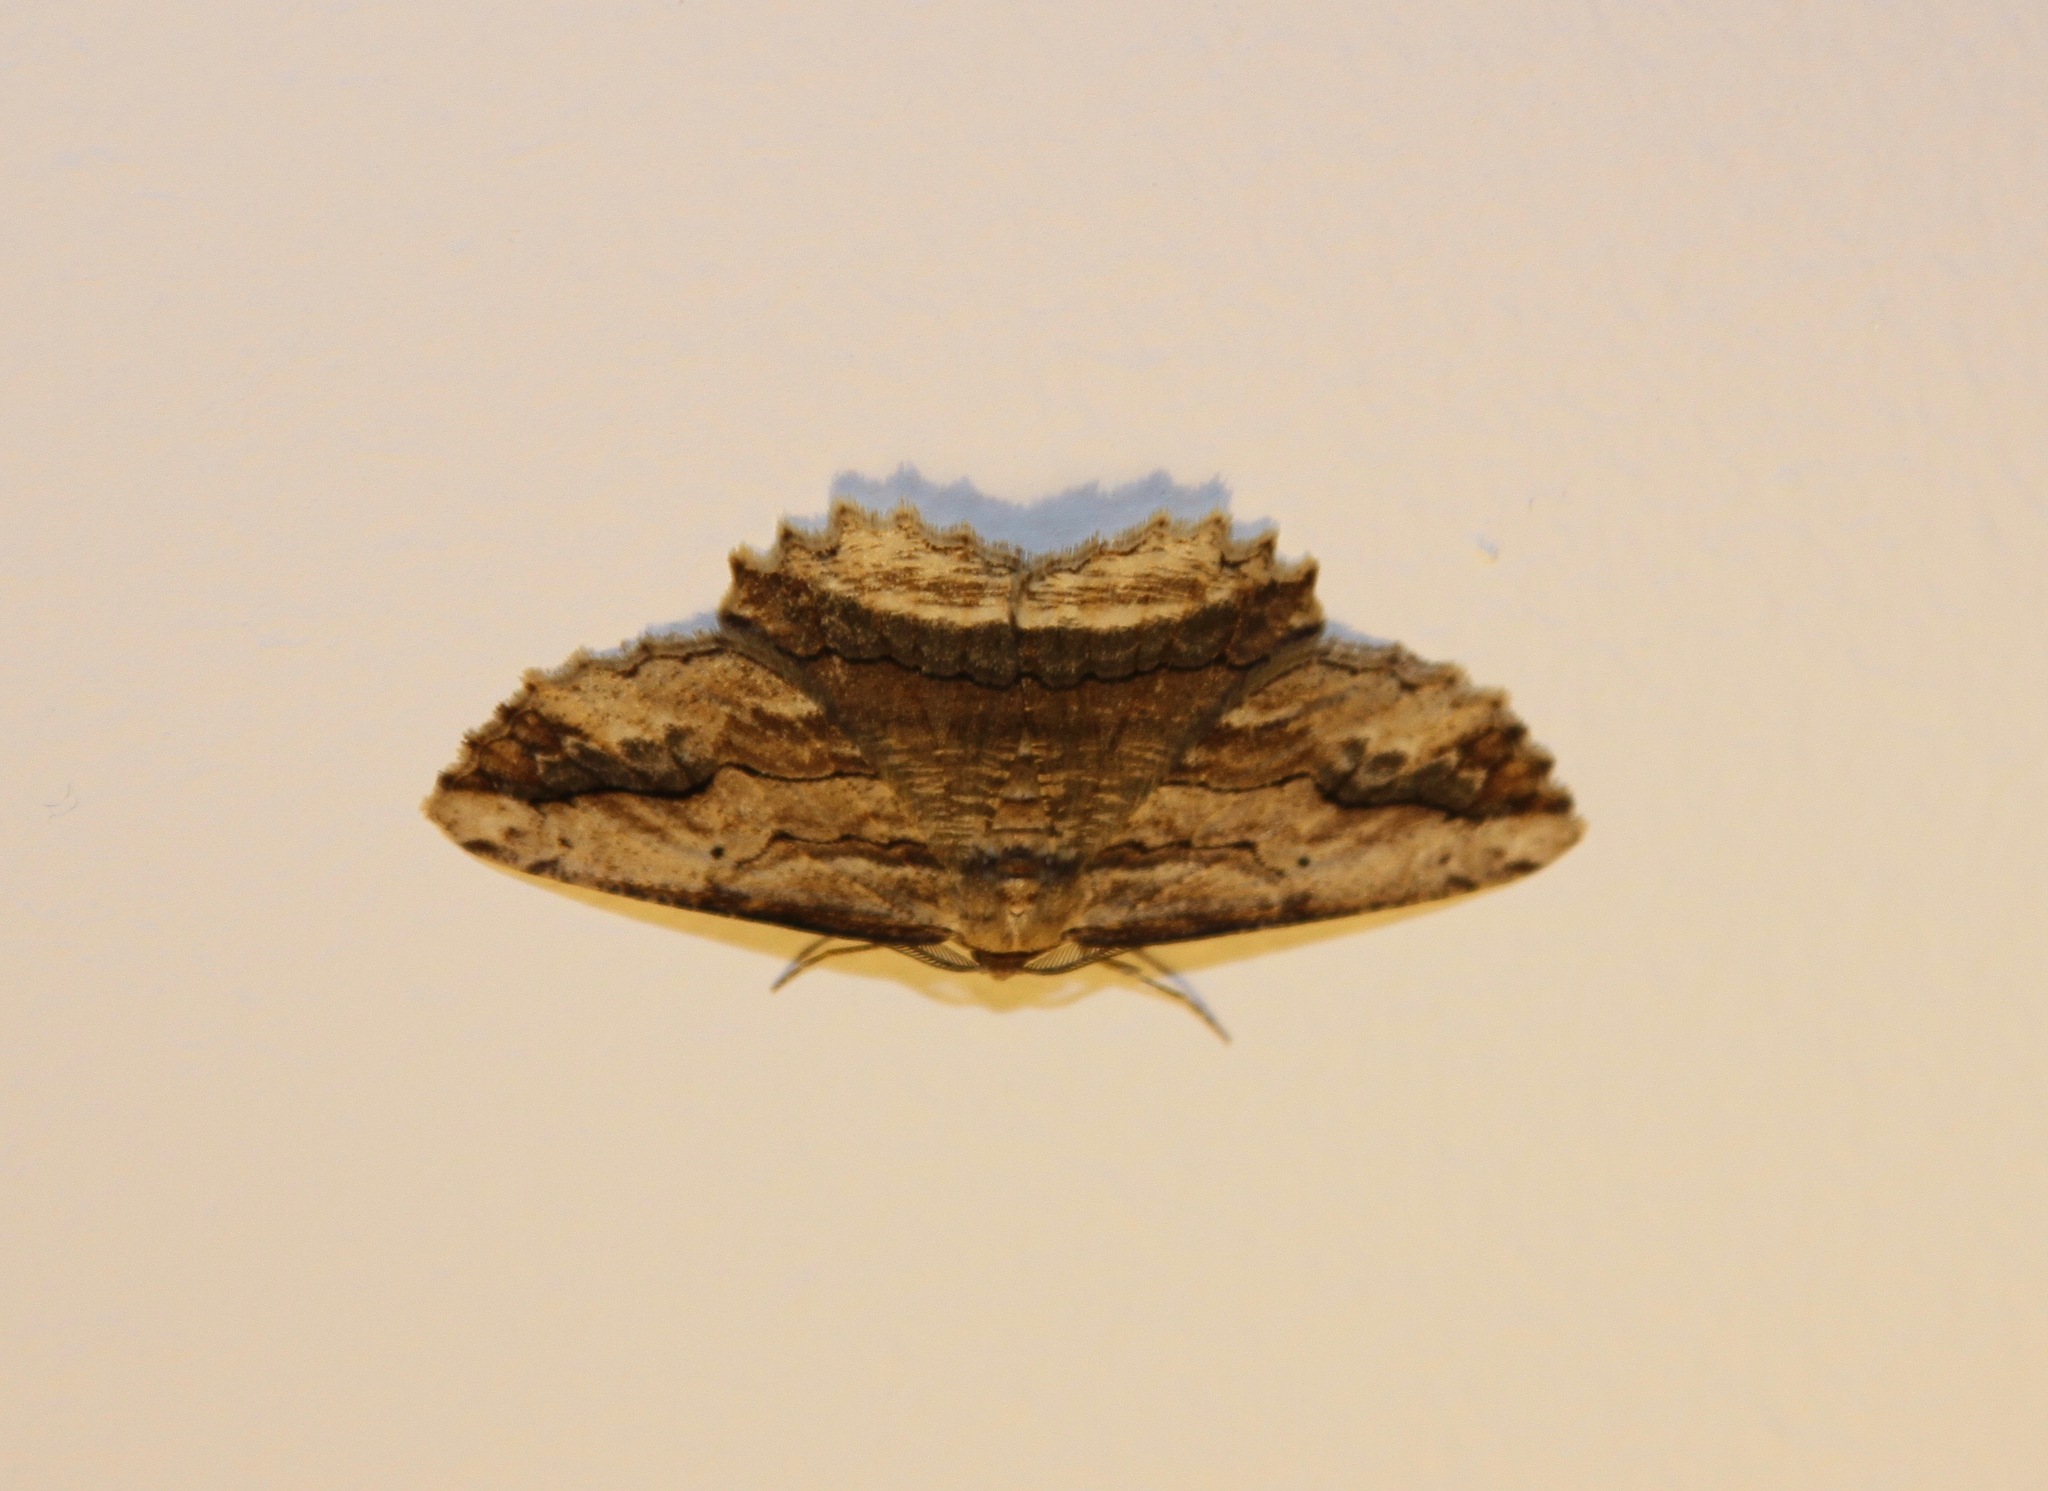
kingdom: Animalia
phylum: Arthropoda
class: Insecta
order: Lepidoptera
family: Geometridae
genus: Menophra
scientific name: Menophra abruptaria
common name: Waved umber
